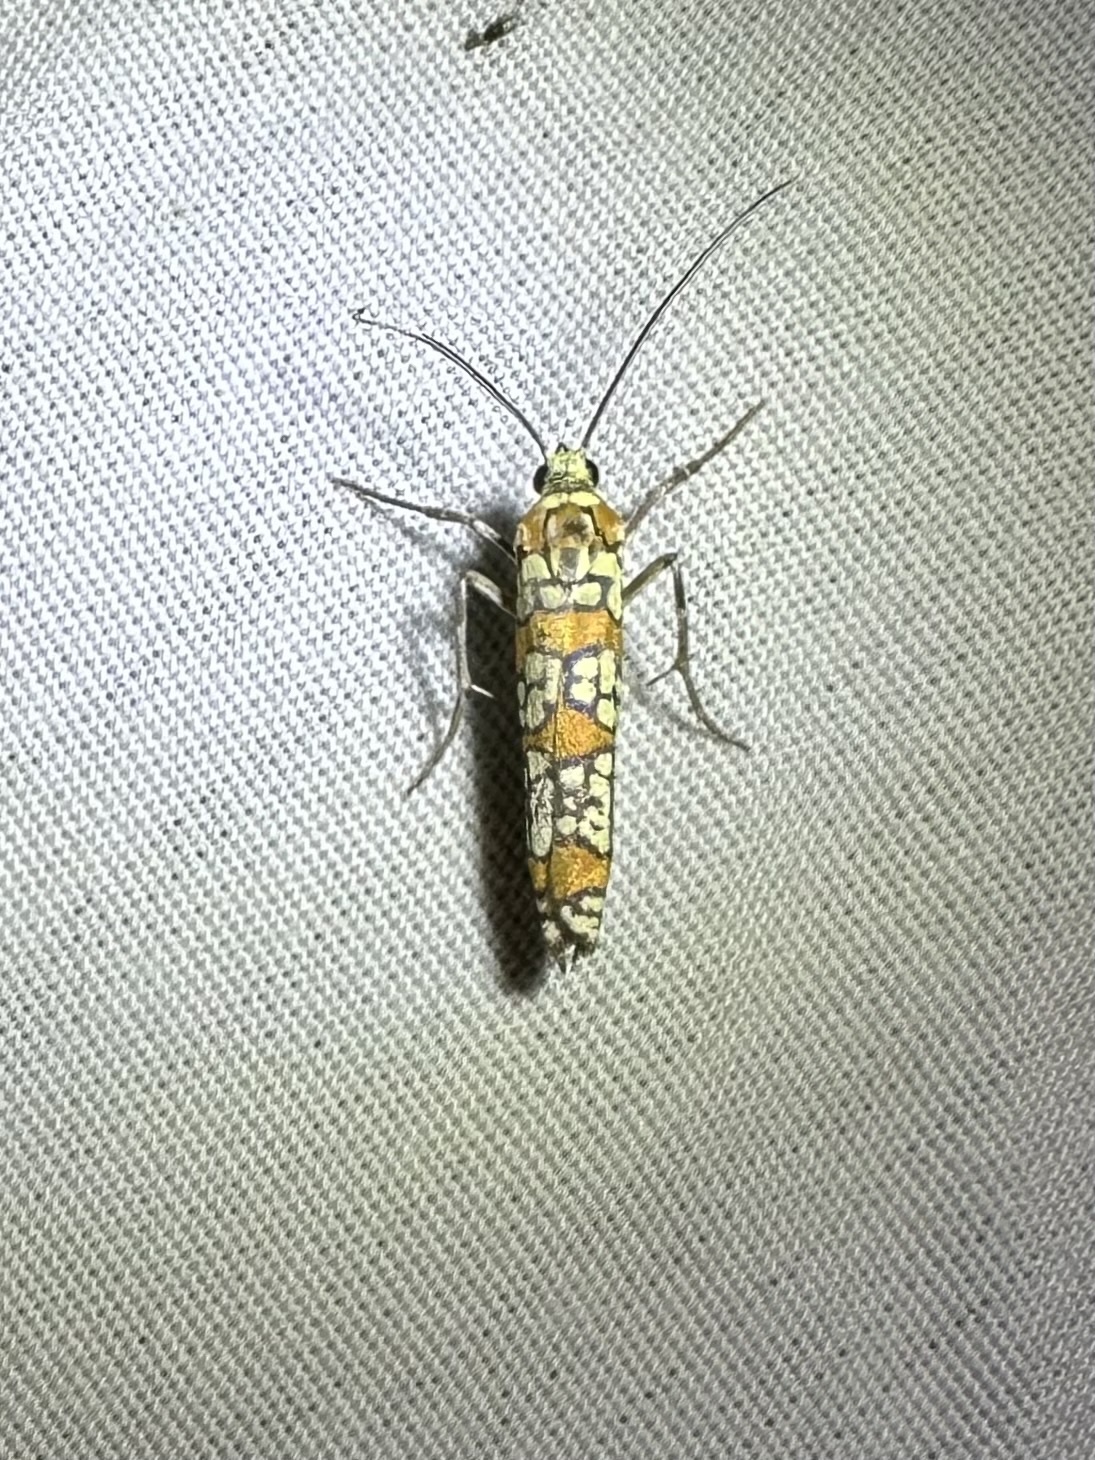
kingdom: Animalia
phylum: Arthropoda
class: Insecta
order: Lepidoptera
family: Attevidae
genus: Atteva
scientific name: Atteva punctella
